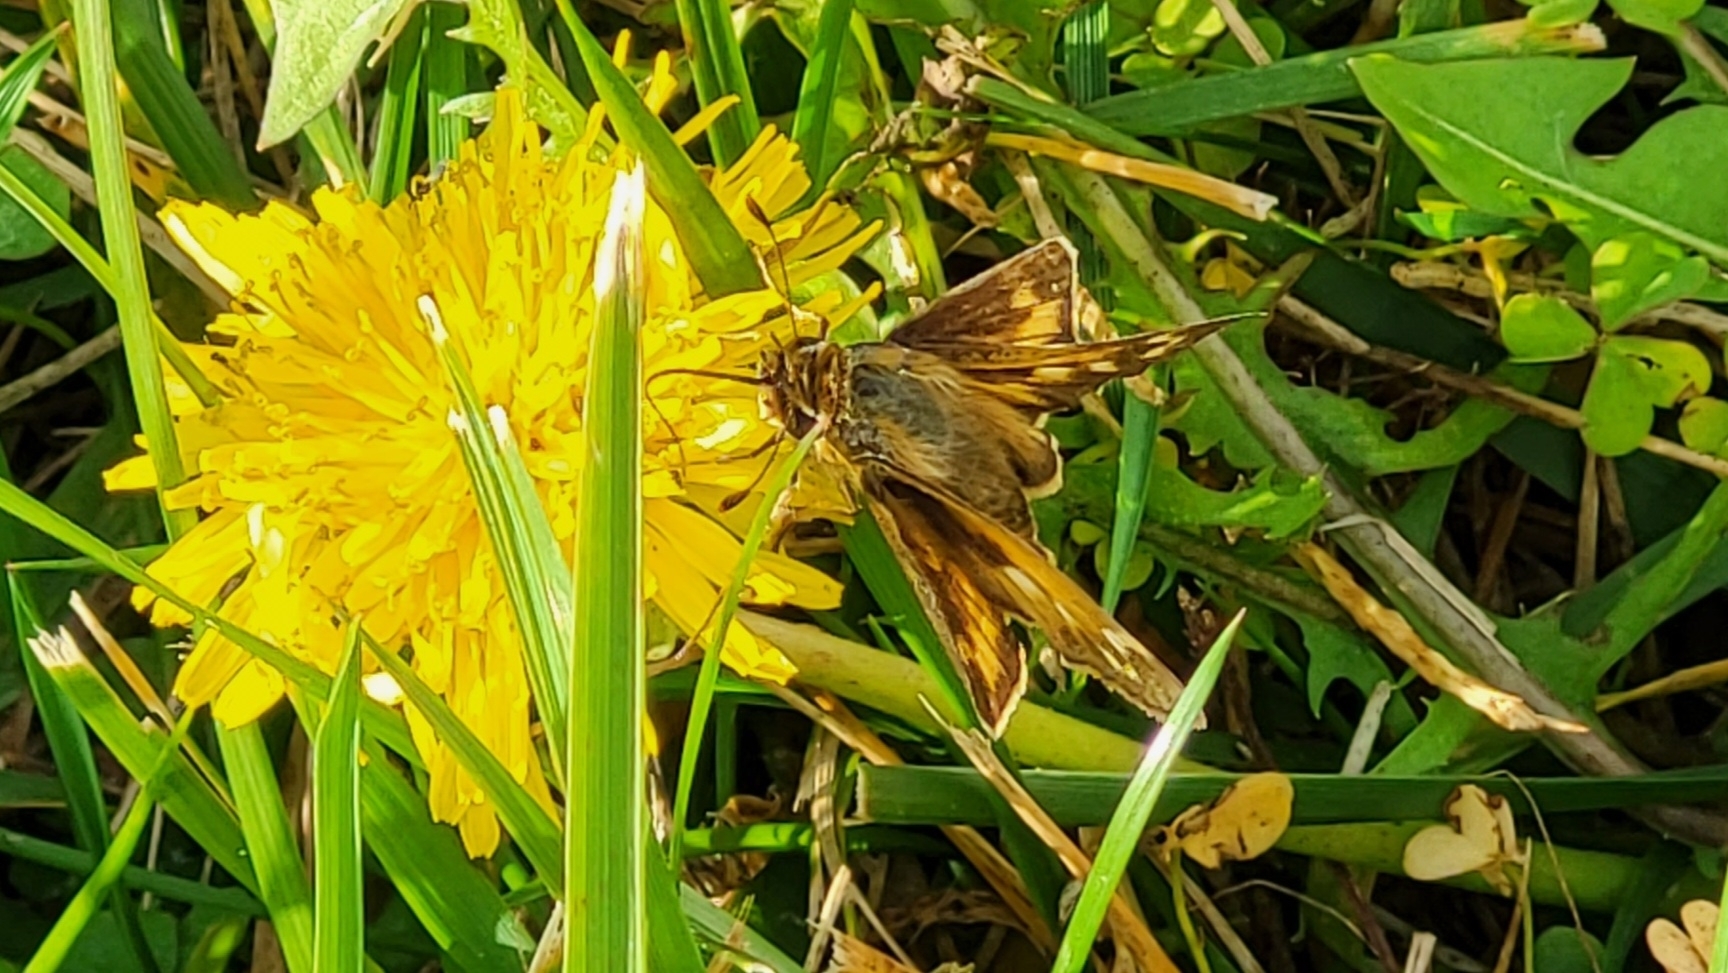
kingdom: Animalia
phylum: Arthropoda
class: Insecta
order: Lepidoptera
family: Hesperiidae
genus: Atalopedes
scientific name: Atalopedes
